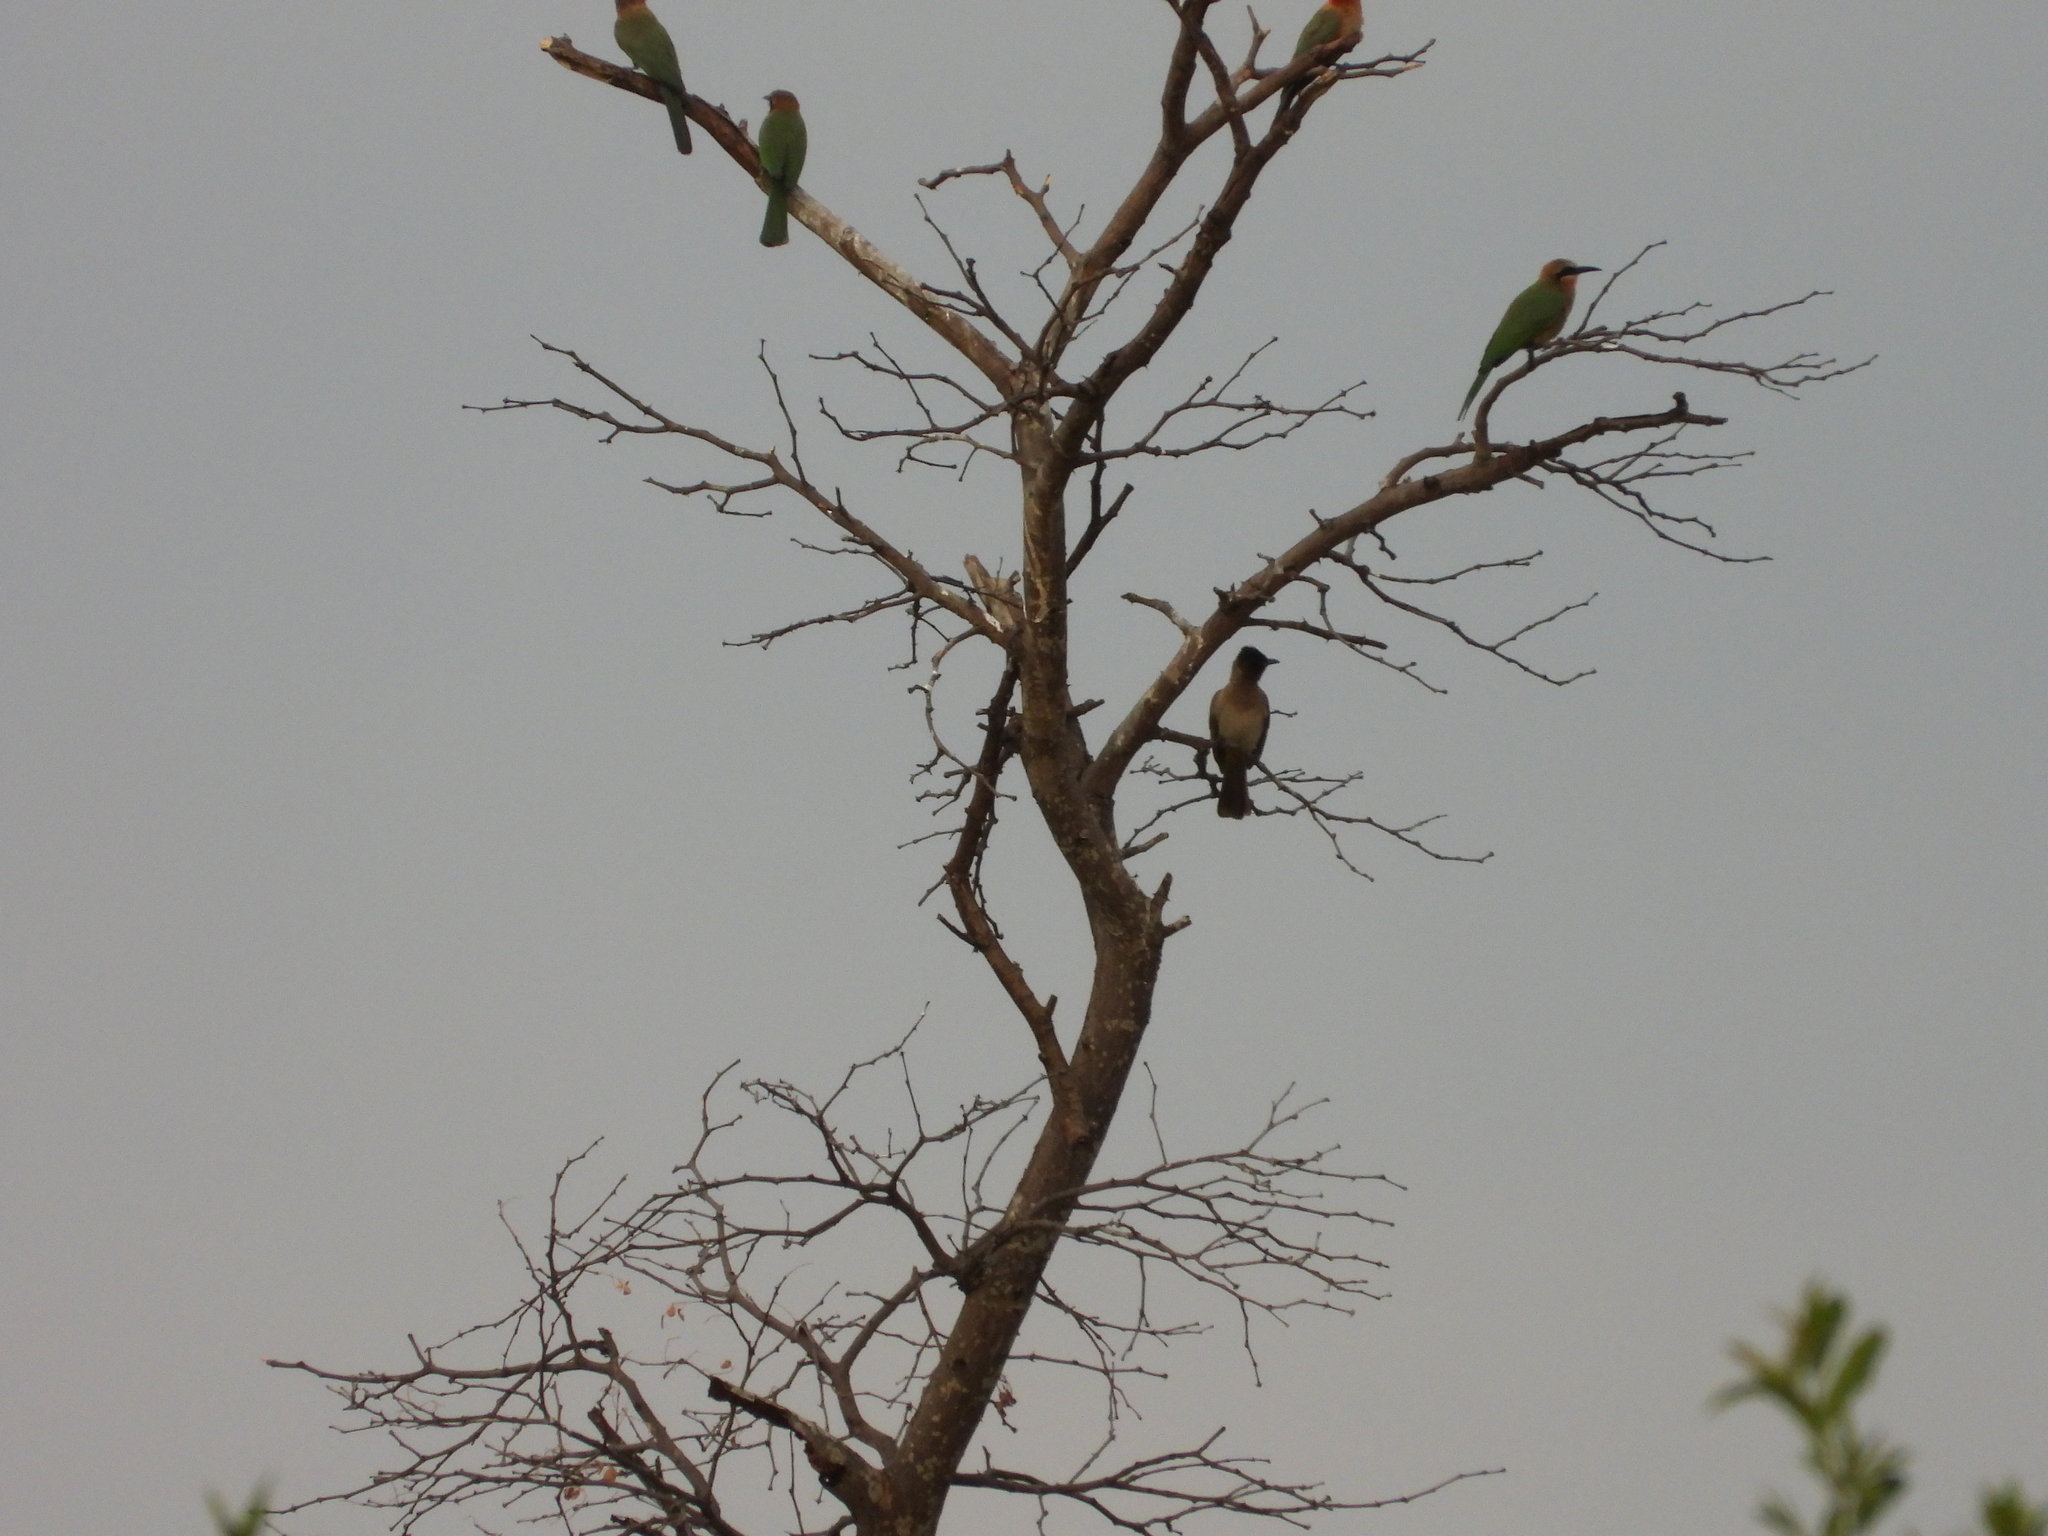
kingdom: Animalia
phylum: Chordata
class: Aves
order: Passeriformes
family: Pycnonotidae
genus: Pycnonotus
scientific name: Pycnonotus barbatus
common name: Common bulbul
